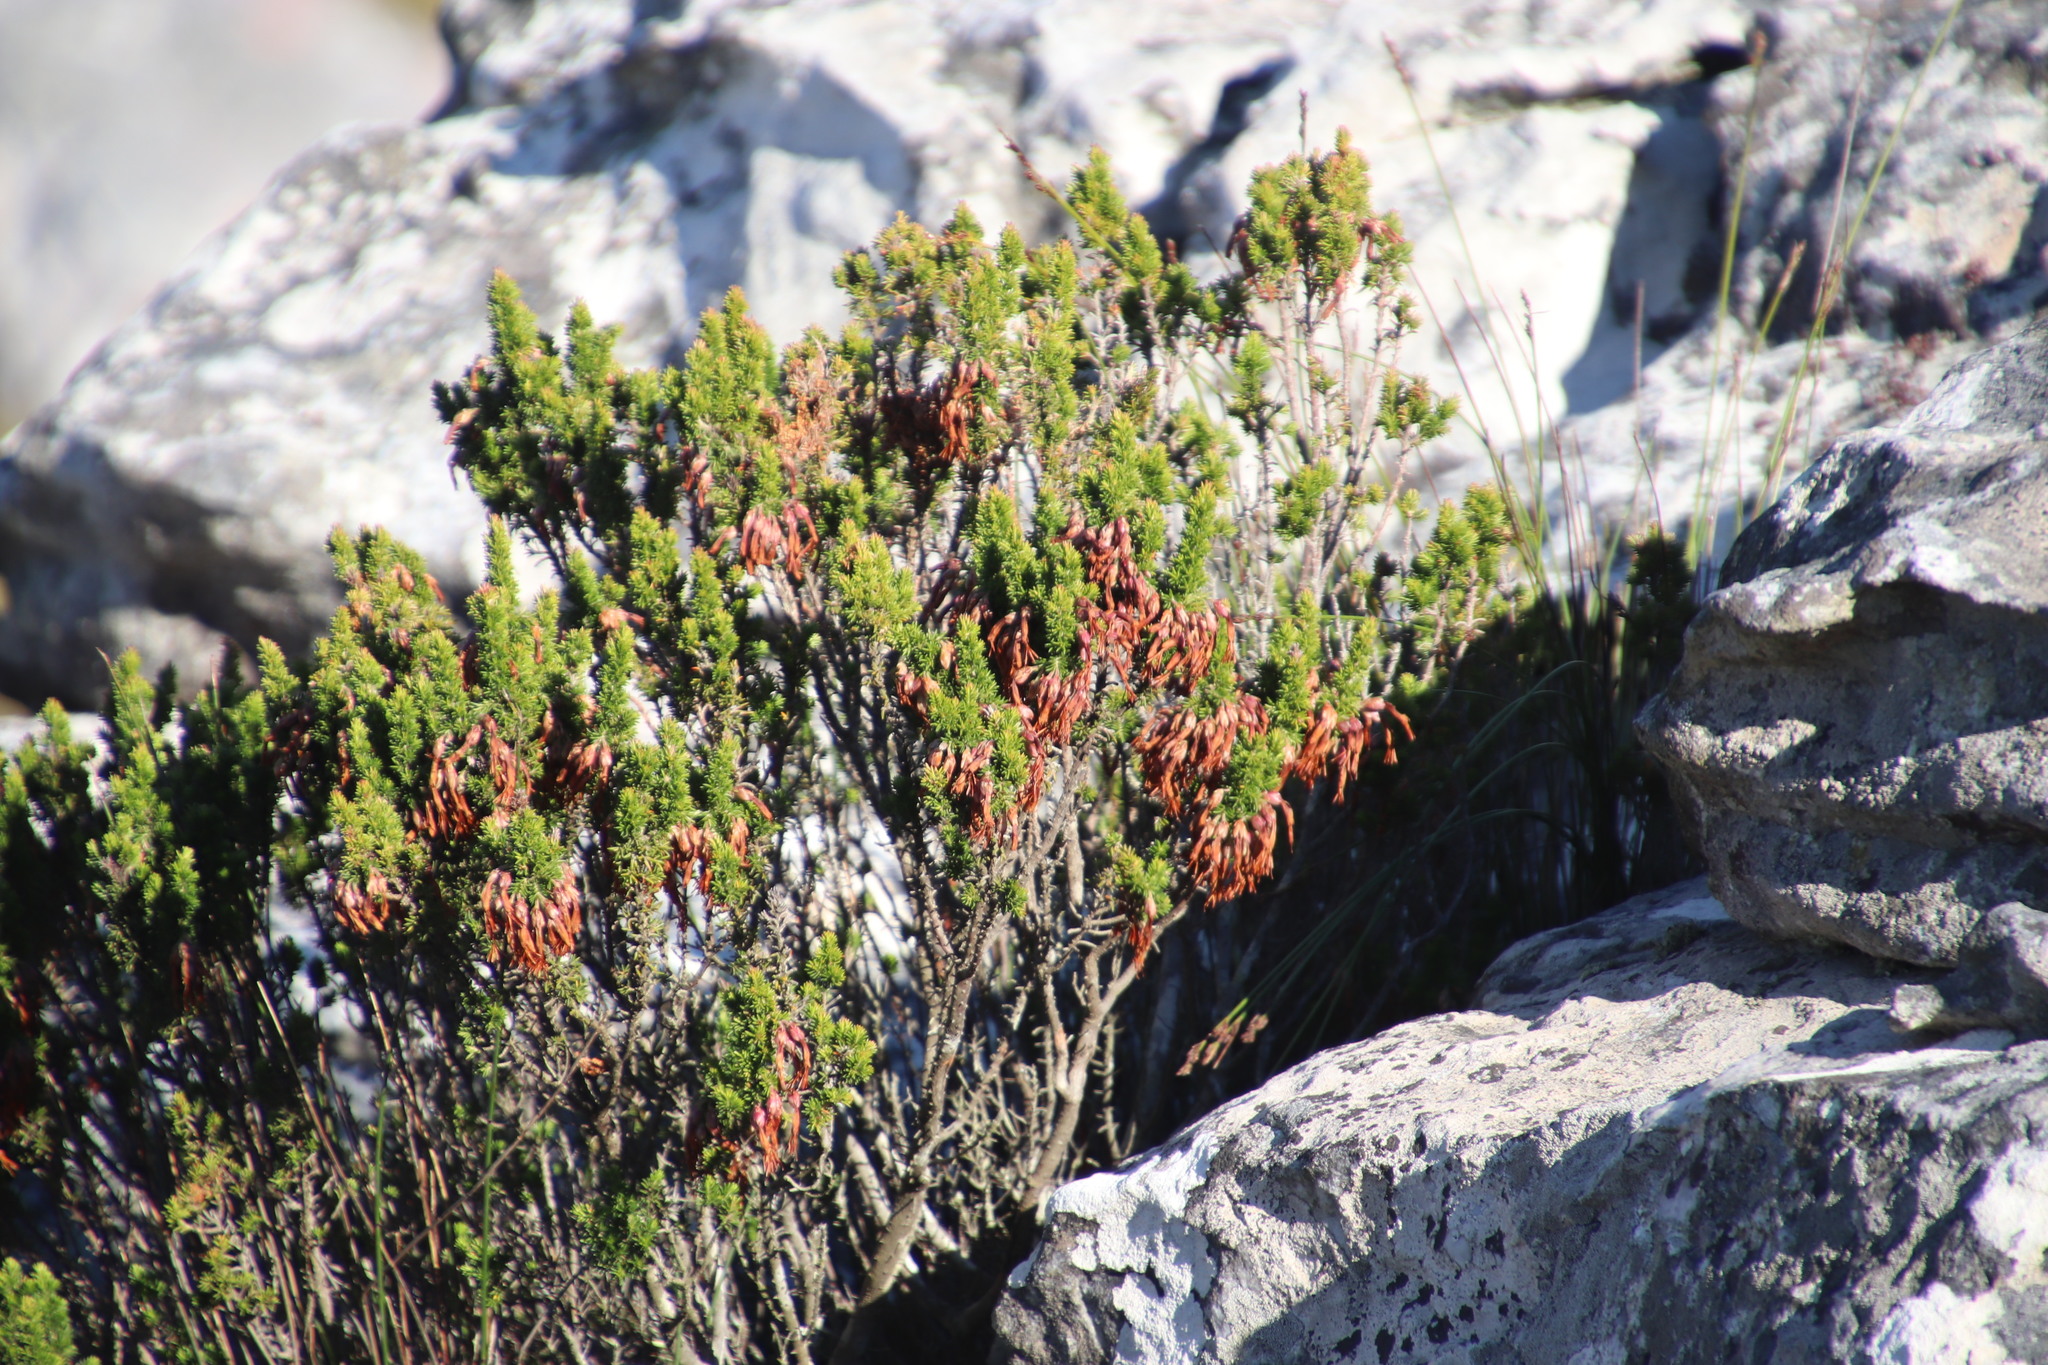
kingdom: Plantae
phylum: Tracheophyta
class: Magnoliopsida
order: Ericales
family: Ericaceae
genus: Erica
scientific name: Erica coccinea
